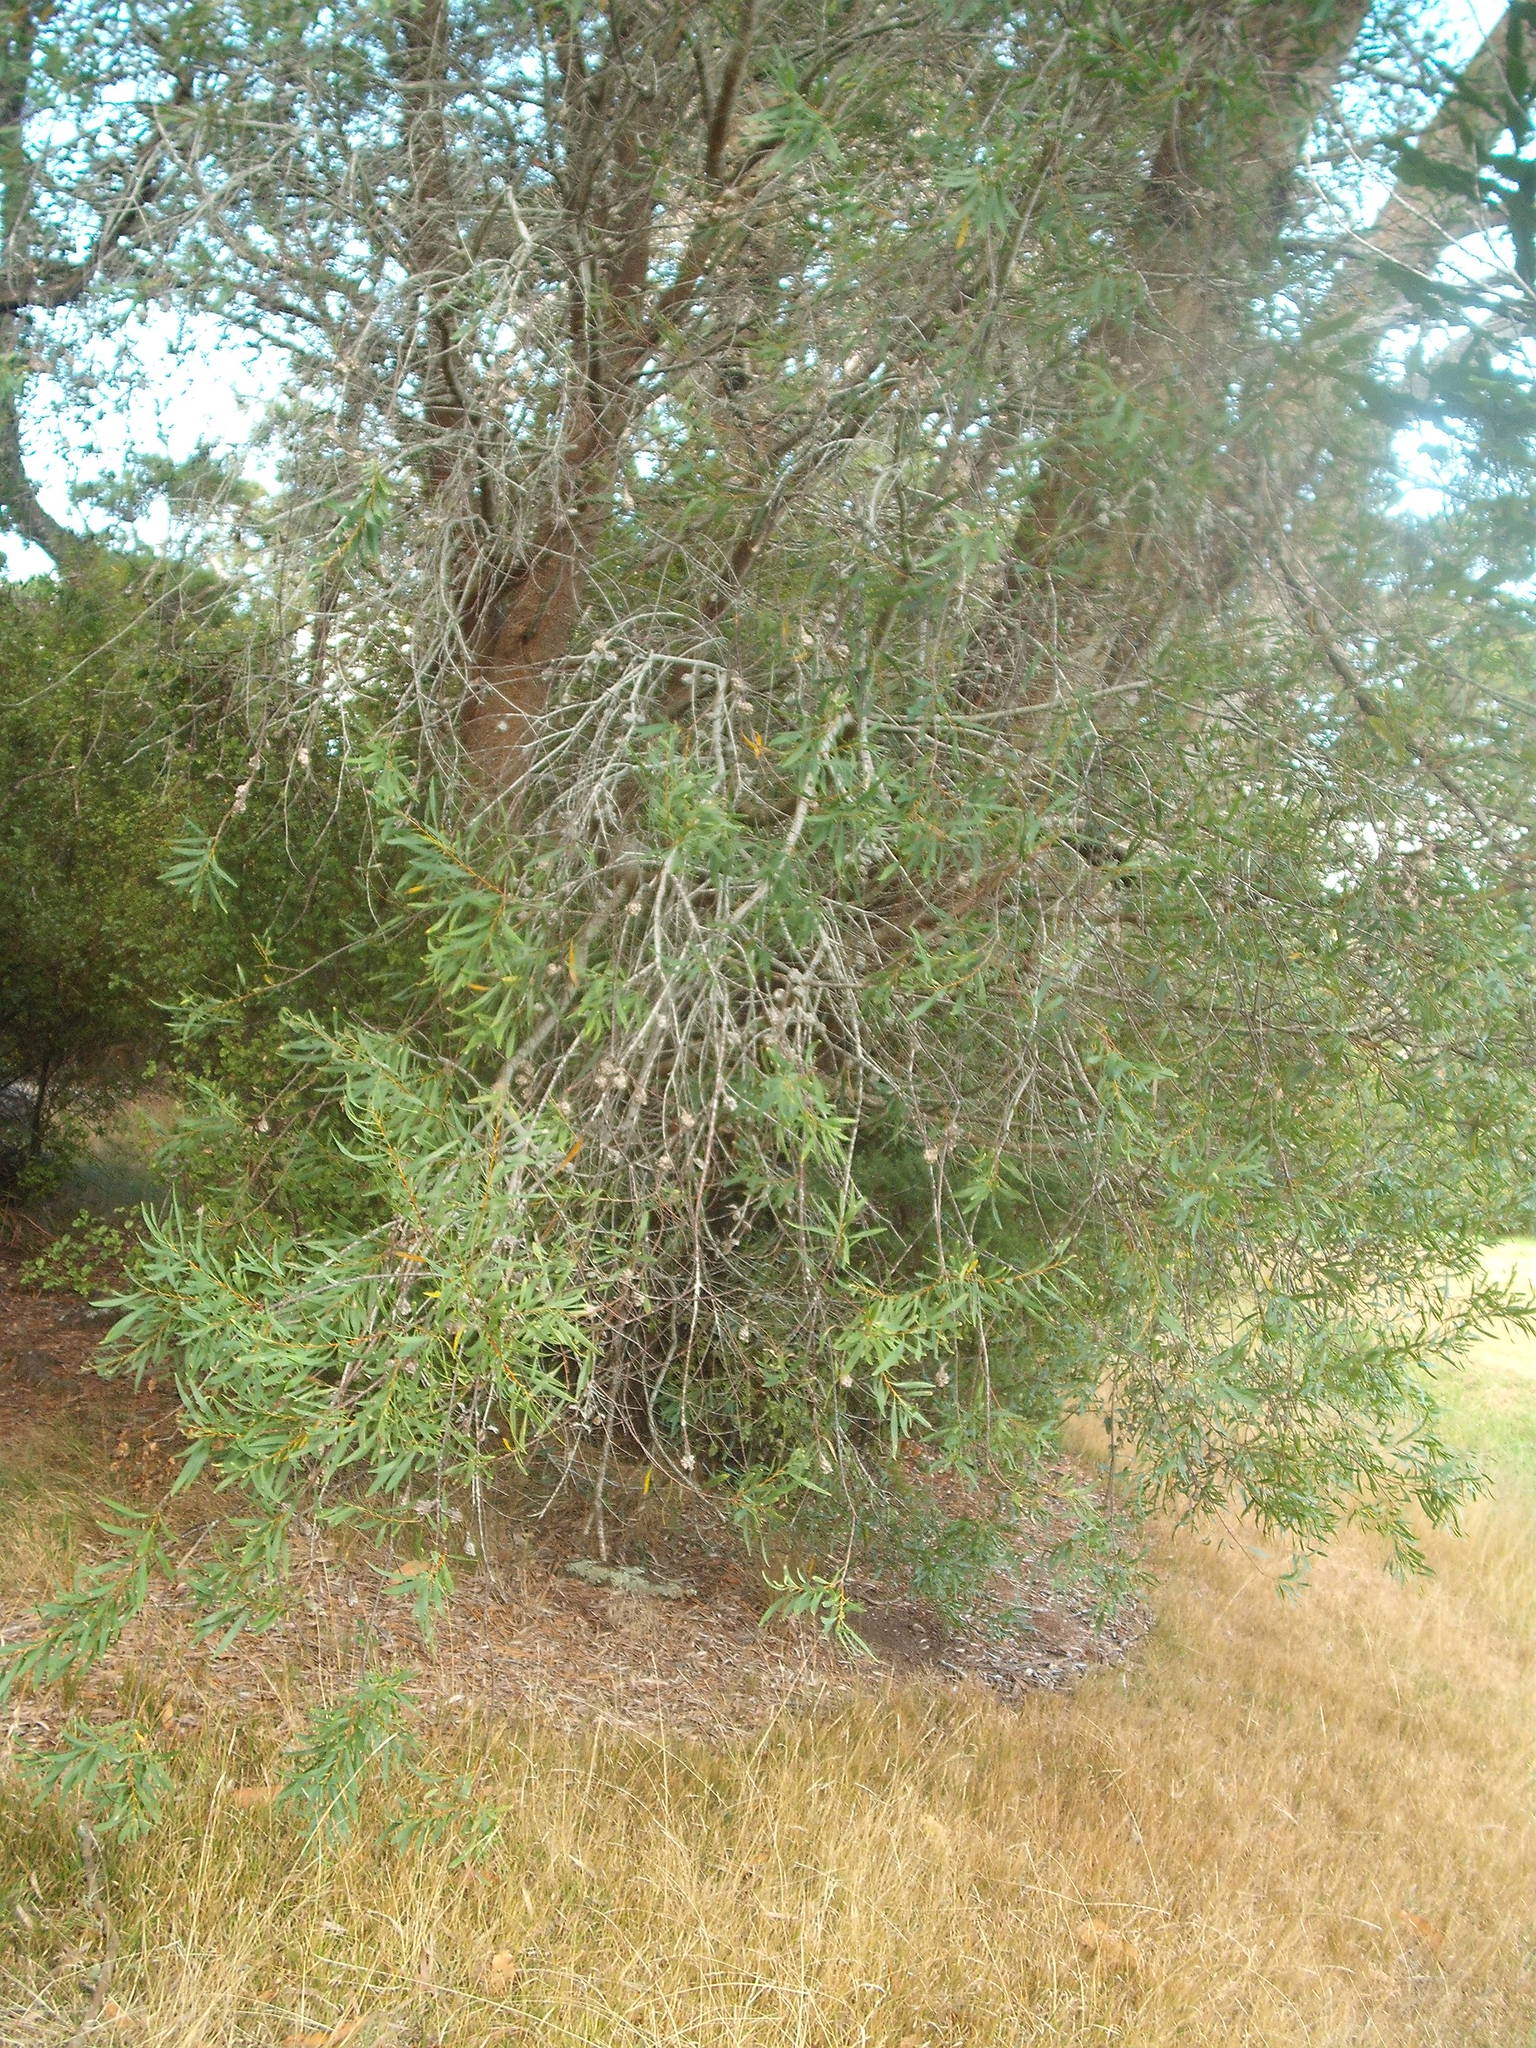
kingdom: Plantae
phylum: Tracheophyta
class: Magnoliopsida
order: Proteales
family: Proteaceae
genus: Hakea
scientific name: Hakea salicifolia
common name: Willow hakea
